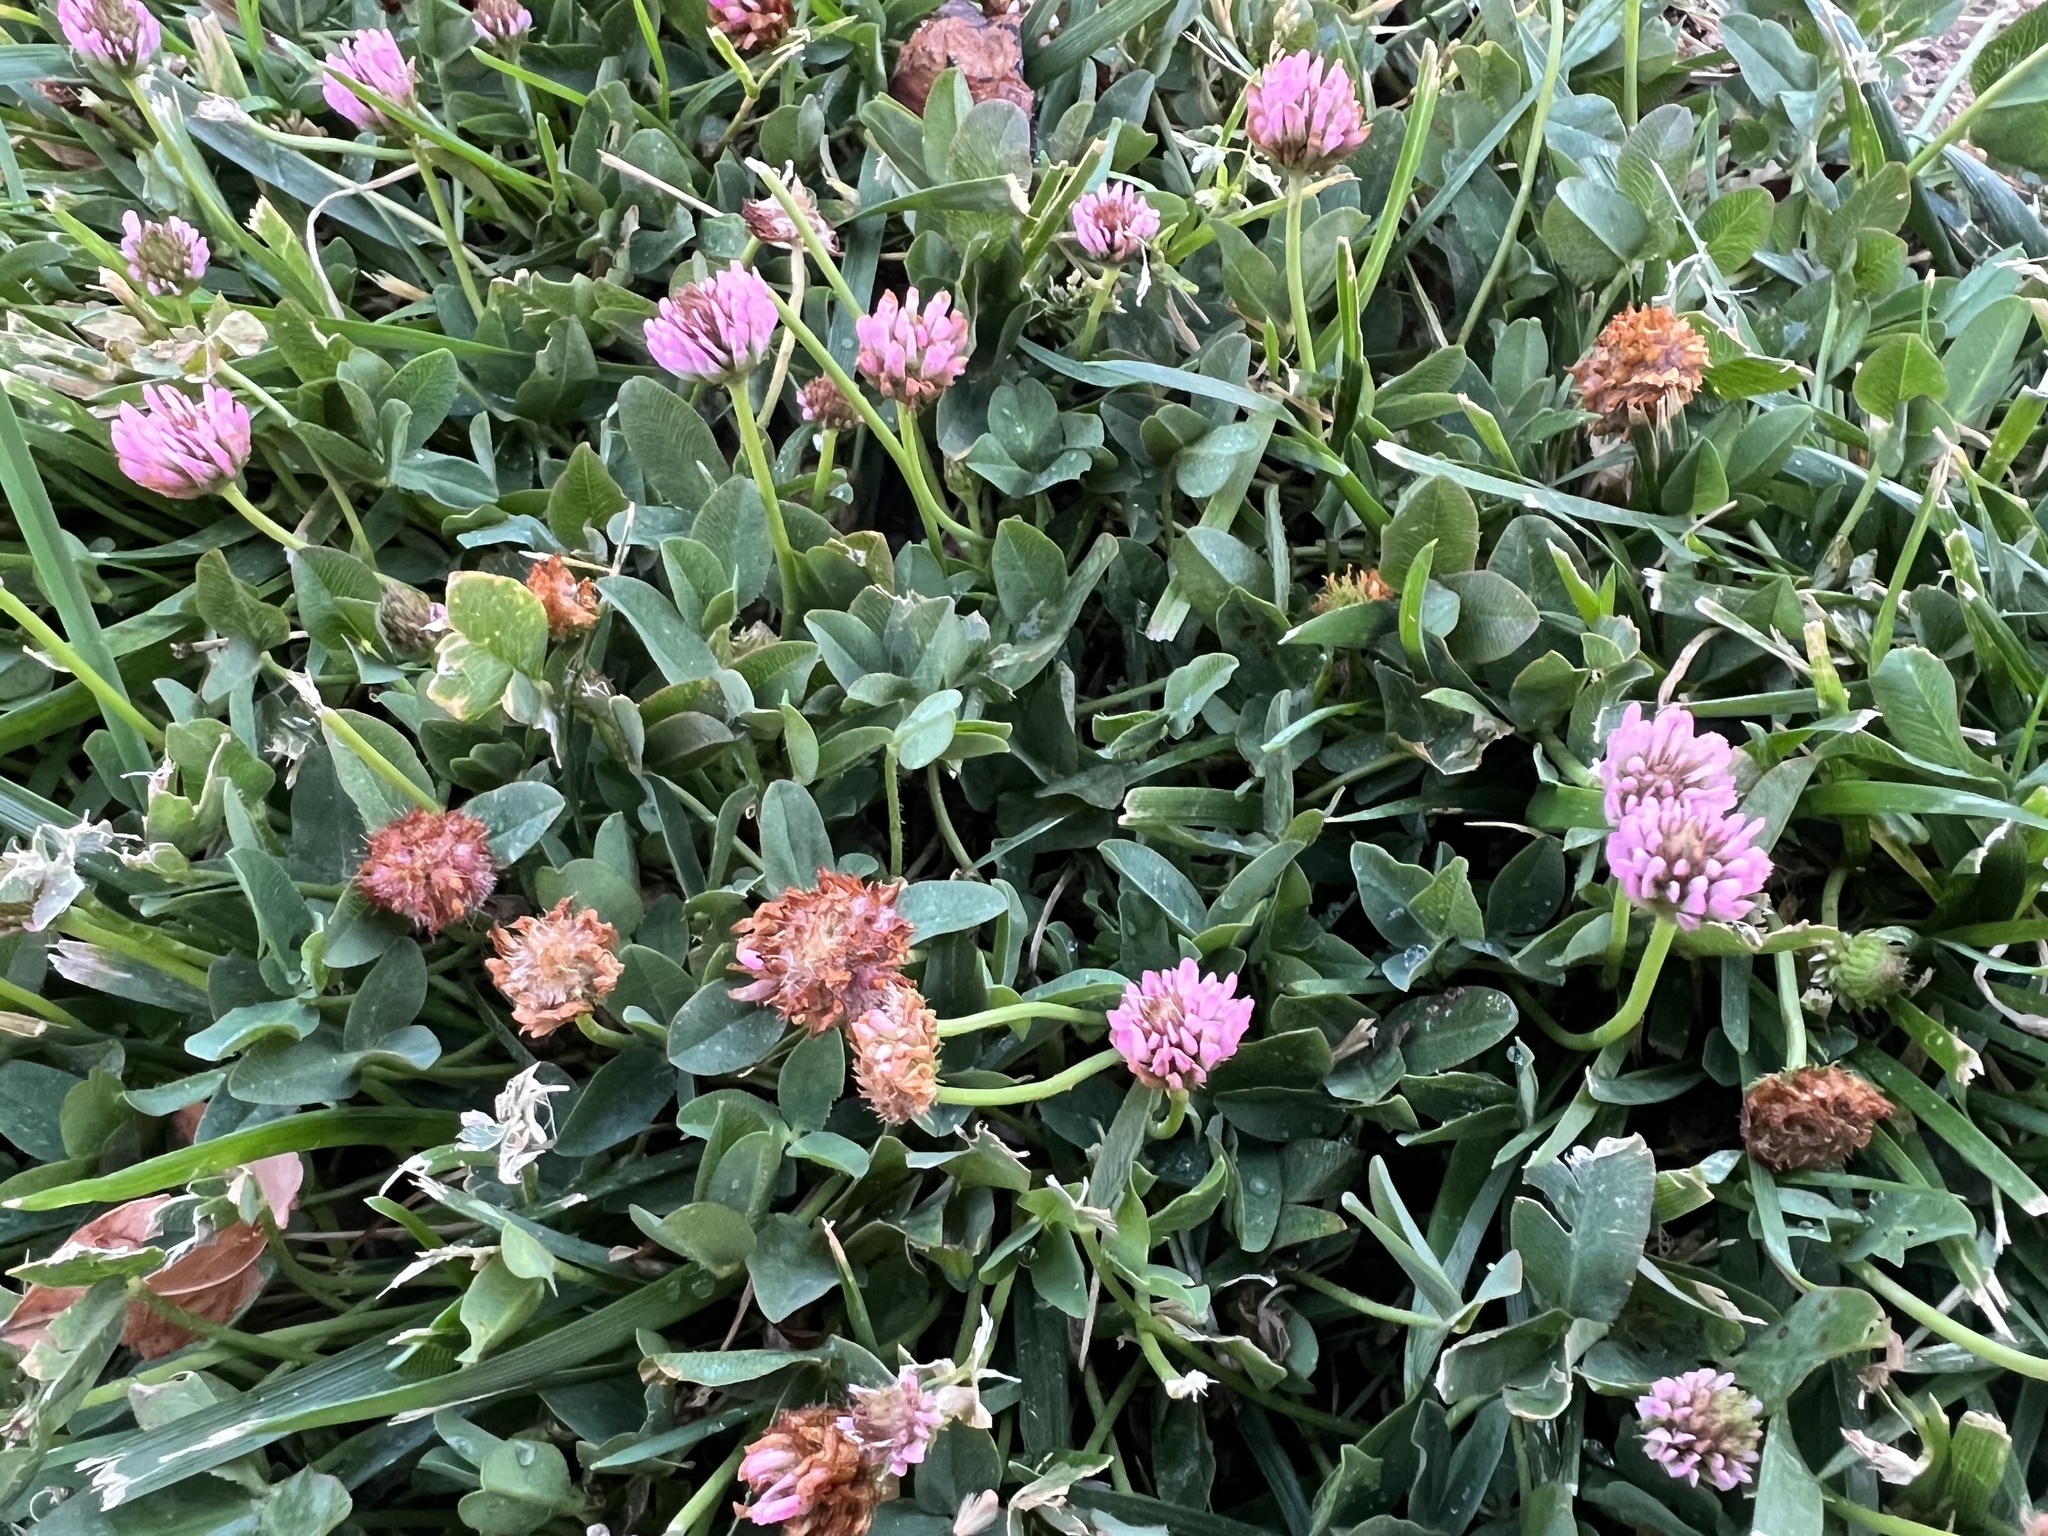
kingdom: Plantae
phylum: Tracheophyta
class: Magnoliopsida
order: Fabales
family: Fabaceae
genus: Trifolium
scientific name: Trifolium fragiferum
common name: Strawberry clover
